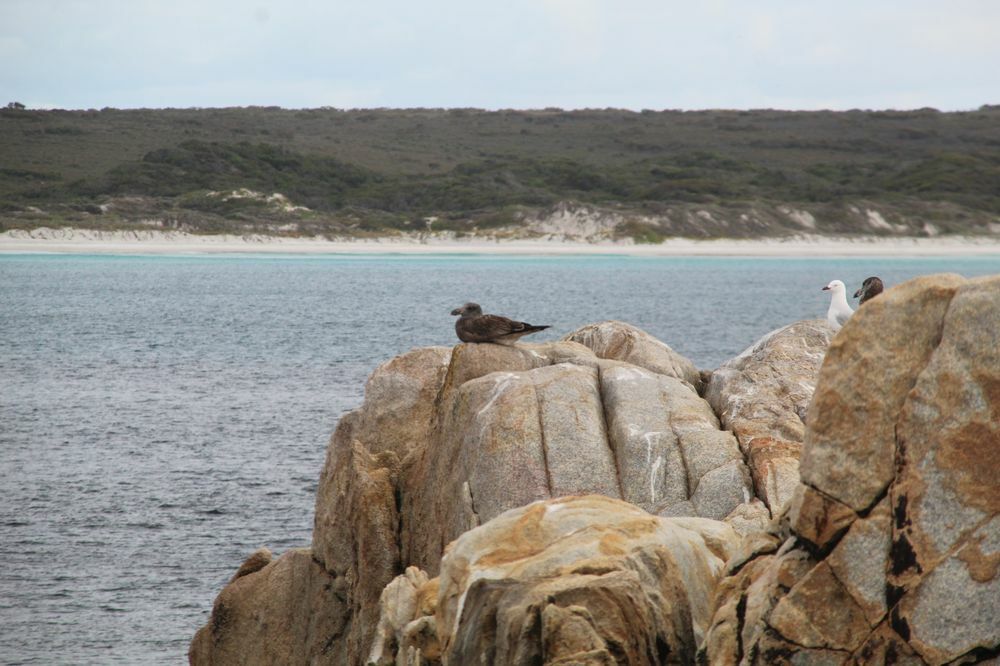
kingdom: Animalia
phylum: Chordata
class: Aves
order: Charadriiformes
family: Laridae
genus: Larus
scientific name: Larus pacificus
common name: Pacific gull
